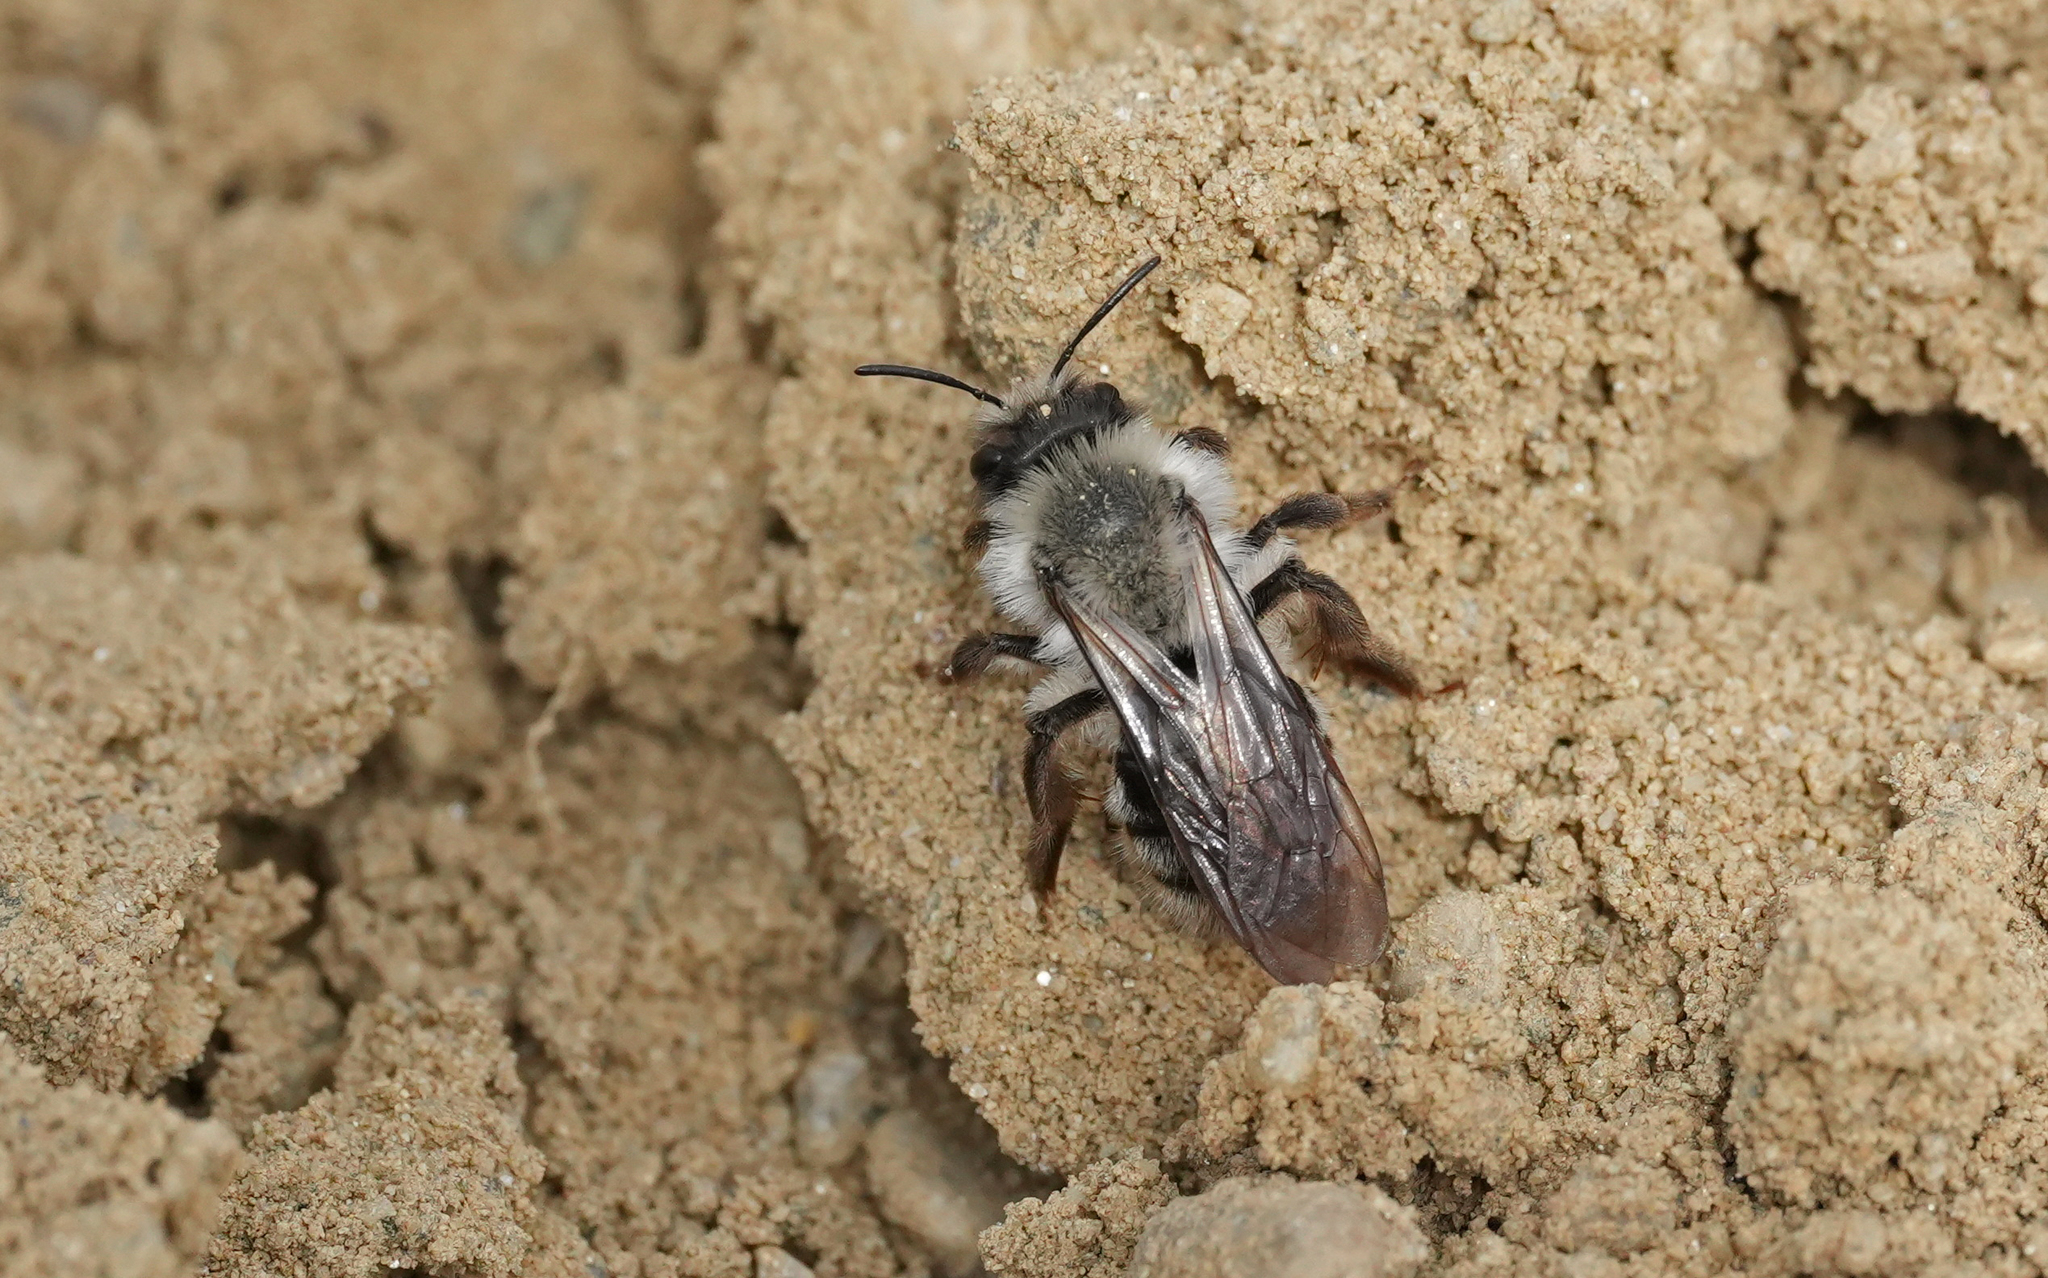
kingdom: Animalia
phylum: Arthropoda
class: Insecta
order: Hymenoptera
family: Andrenidae
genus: Andrena
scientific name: Andrena vaga
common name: Grey-backed mining bee
